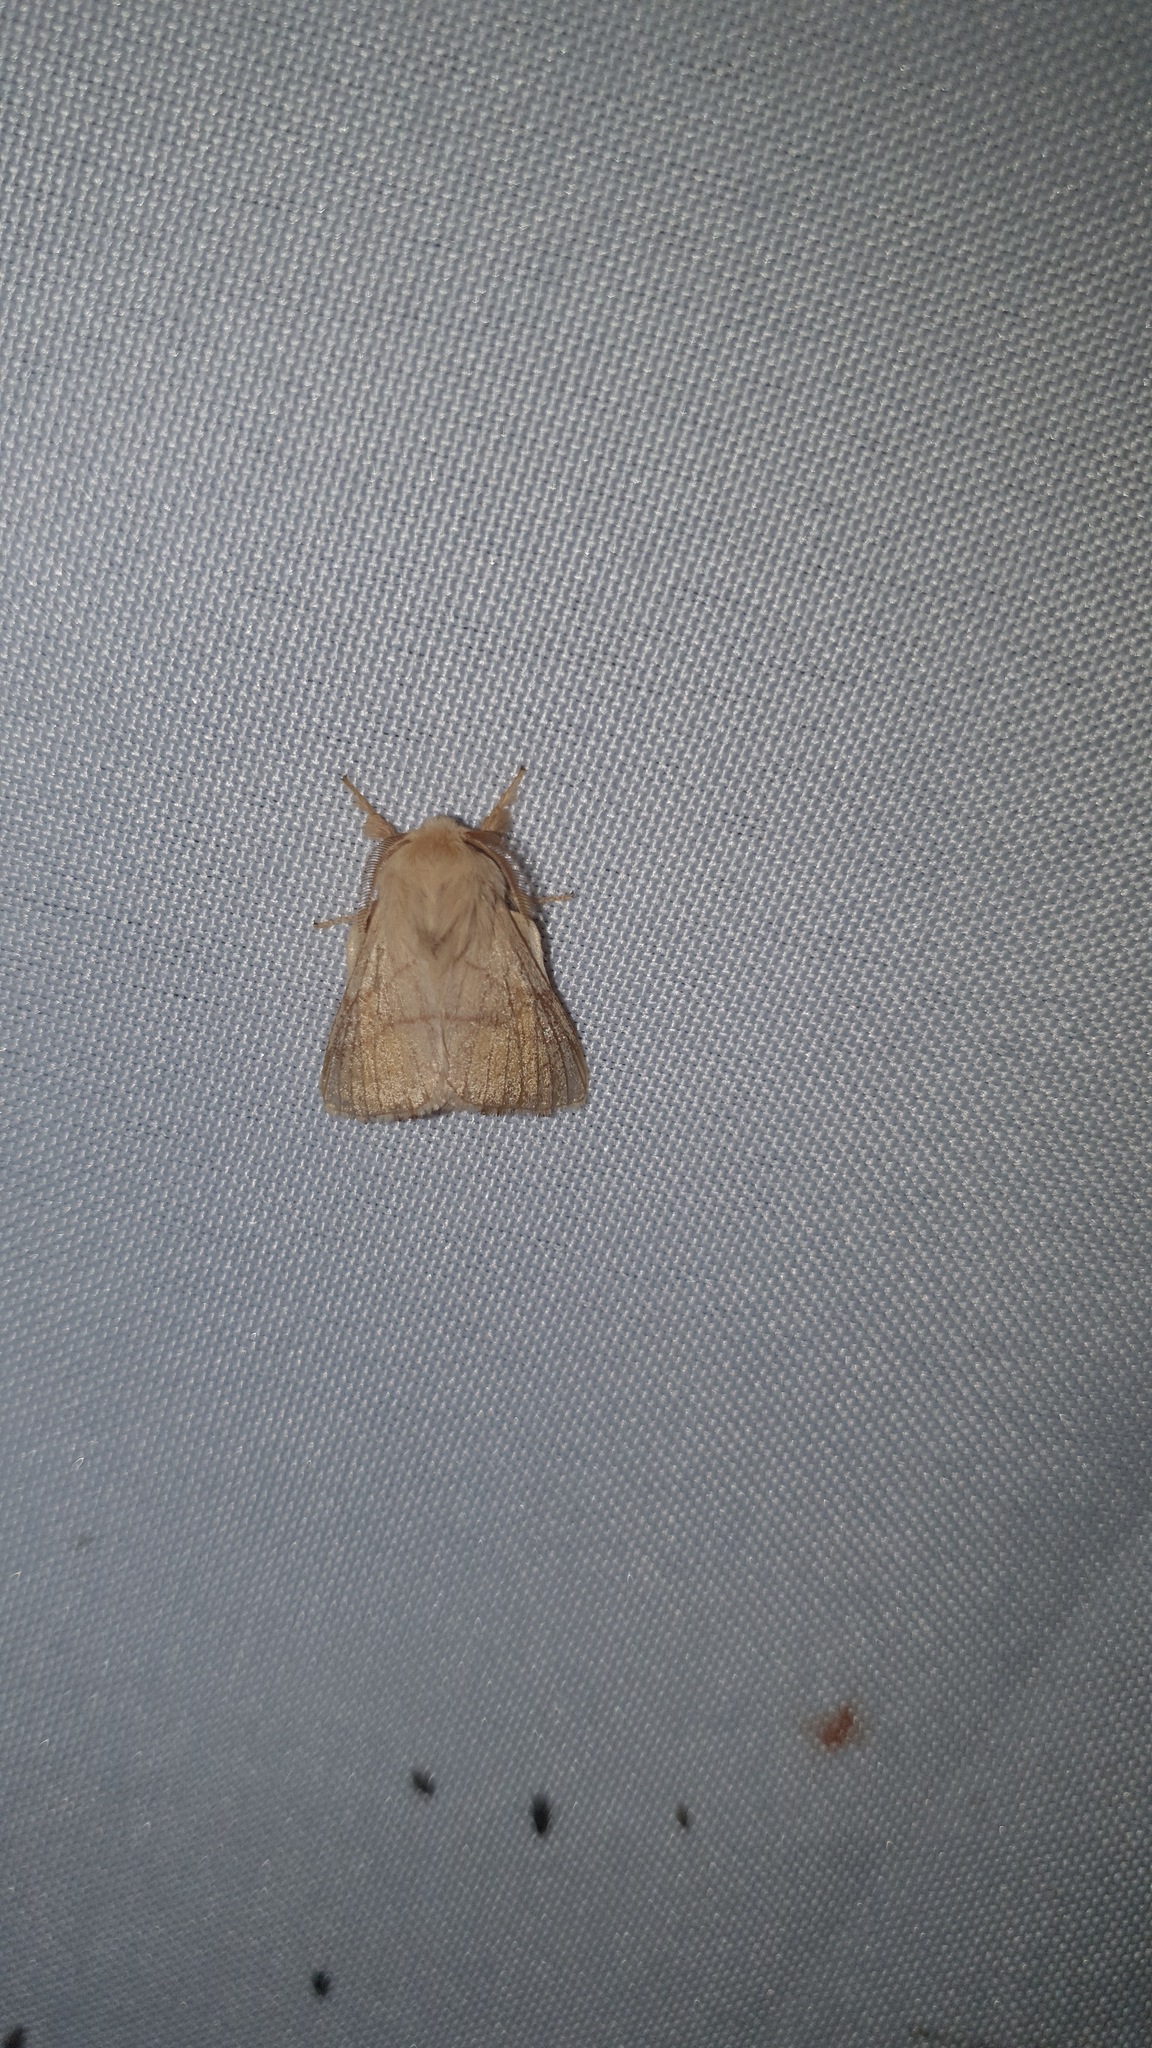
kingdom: Animalia
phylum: Arthropoda
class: Insecta
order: Lepidoptera
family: Lasiocampidae
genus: Malacosoma
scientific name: Malacosoma neustria
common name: The lackey
